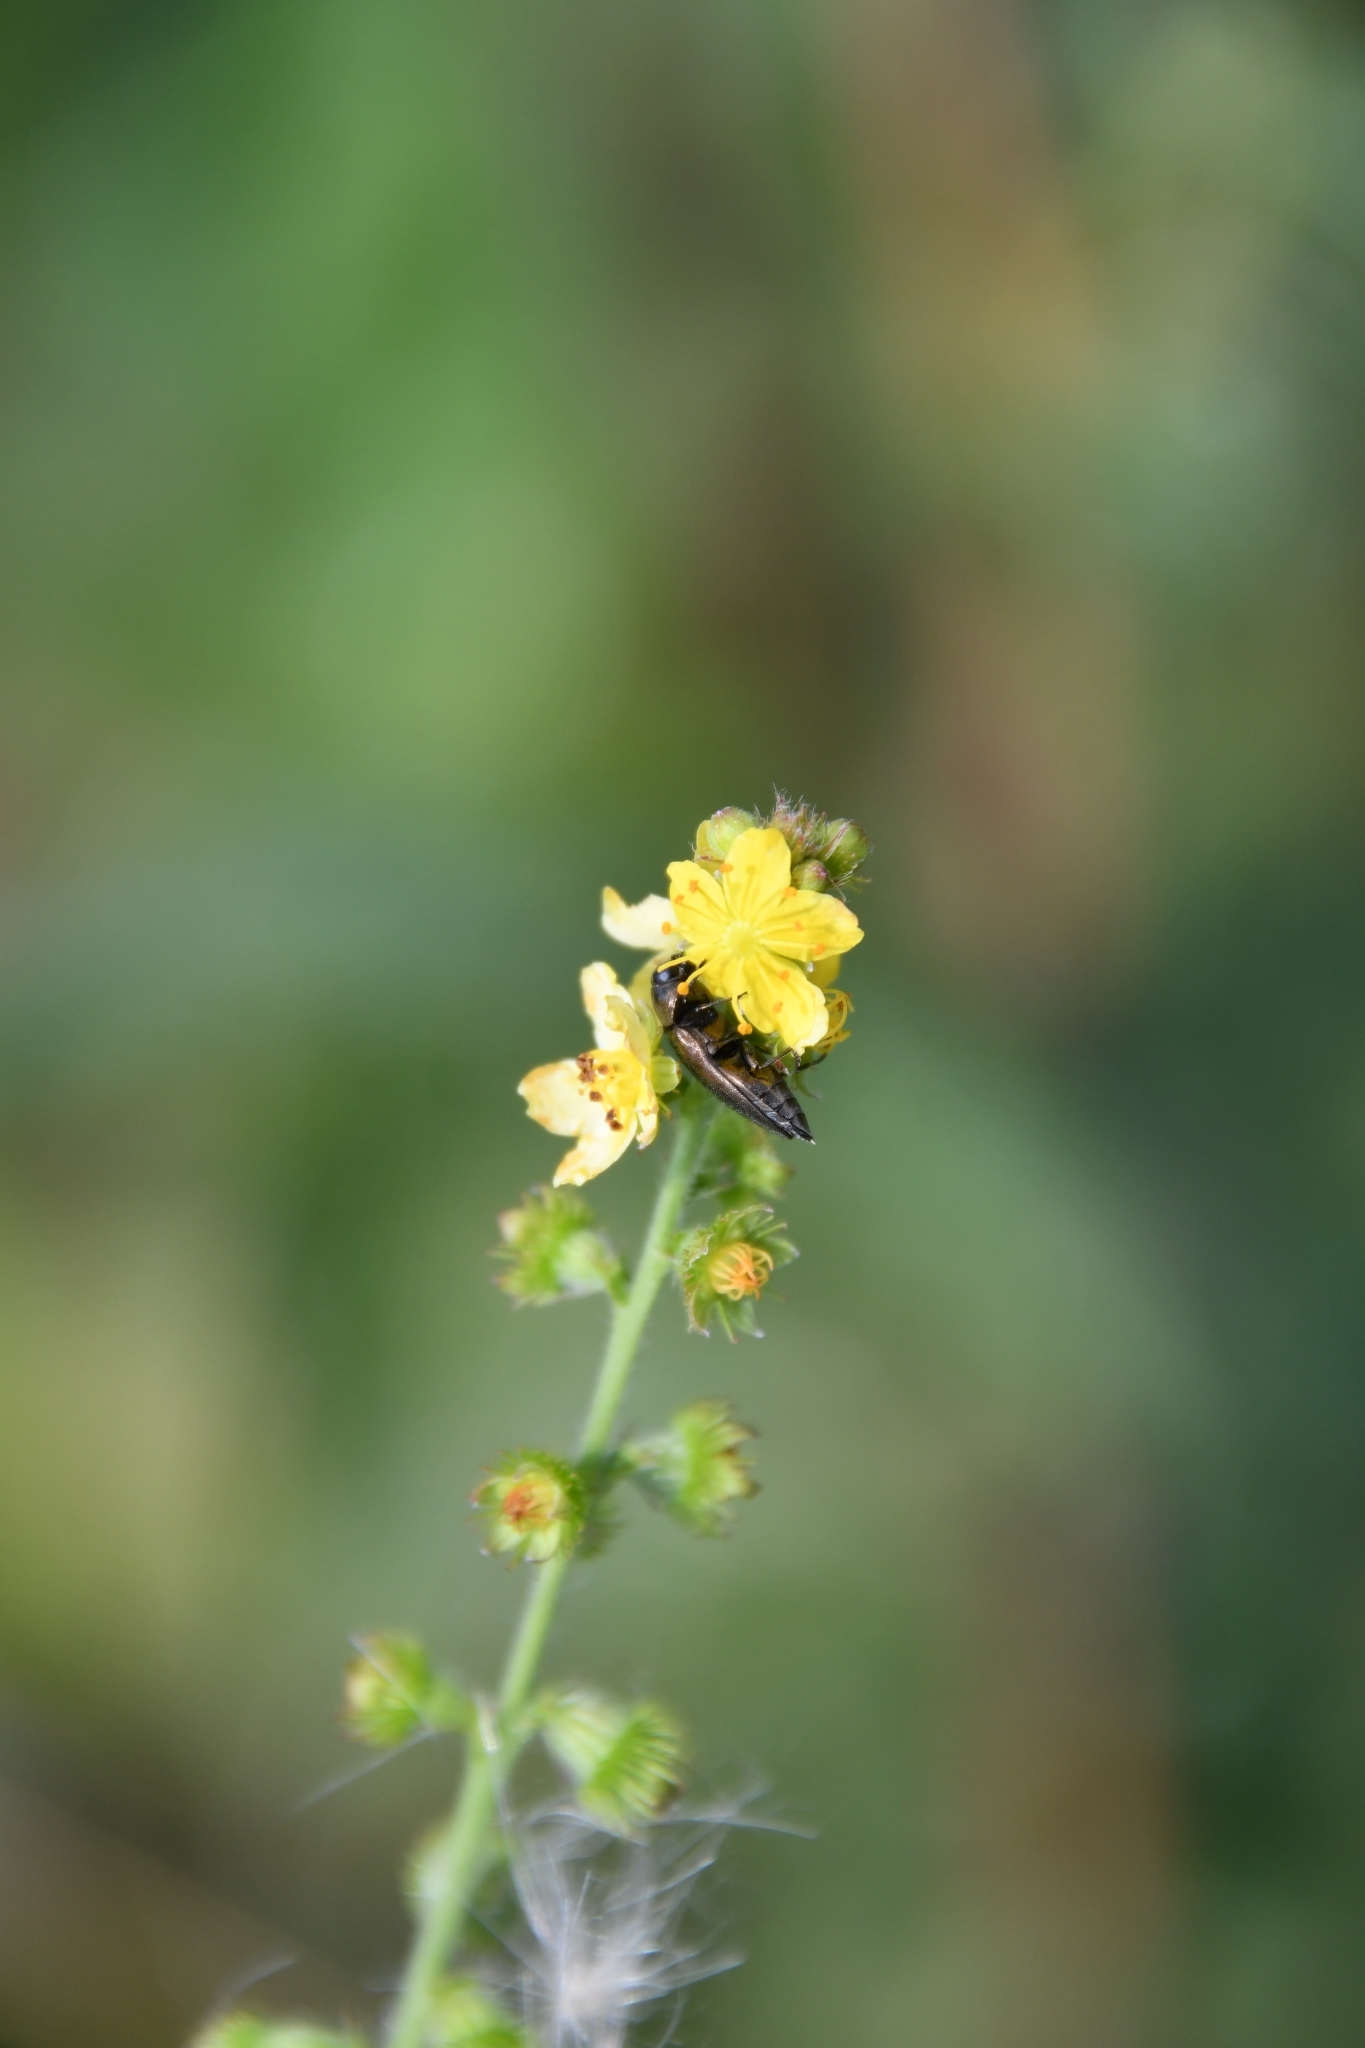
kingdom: Animalia
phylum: Arthropoda
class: Insecta
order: Coleoptera
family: Buprestidae
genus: Coraebus
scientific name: Coraebus elatus
